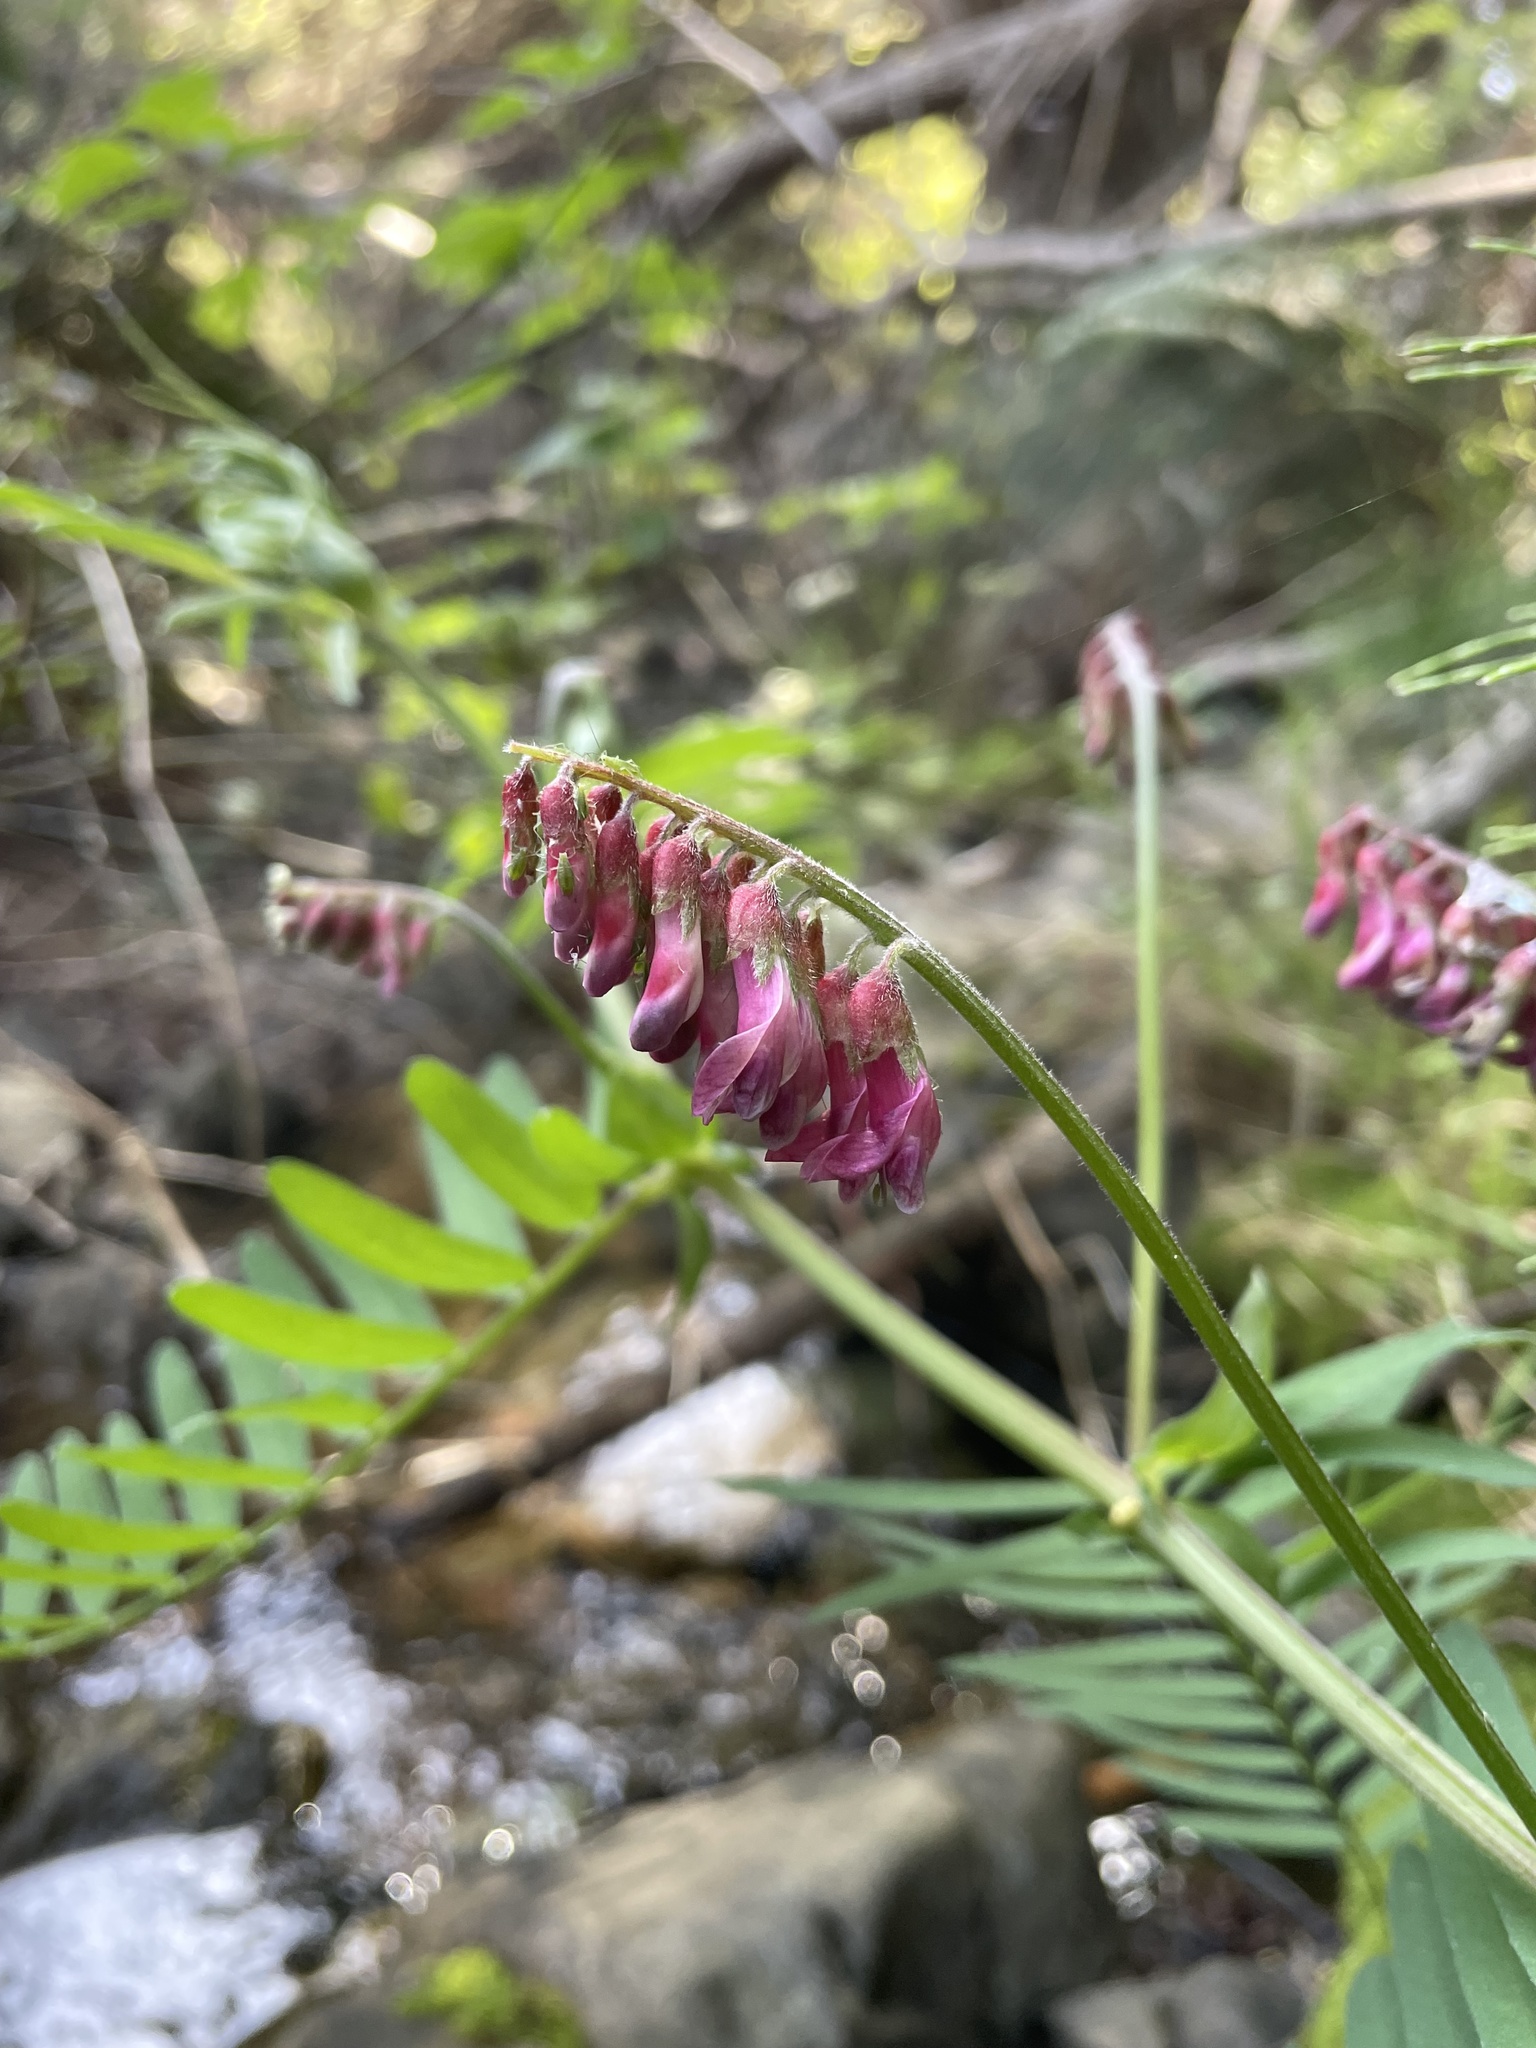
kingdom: Plantae
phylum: Tracheophyta
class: Magnoliopsida
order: Fabales
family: Fabaceae
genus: Vicia
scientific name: Vicia
